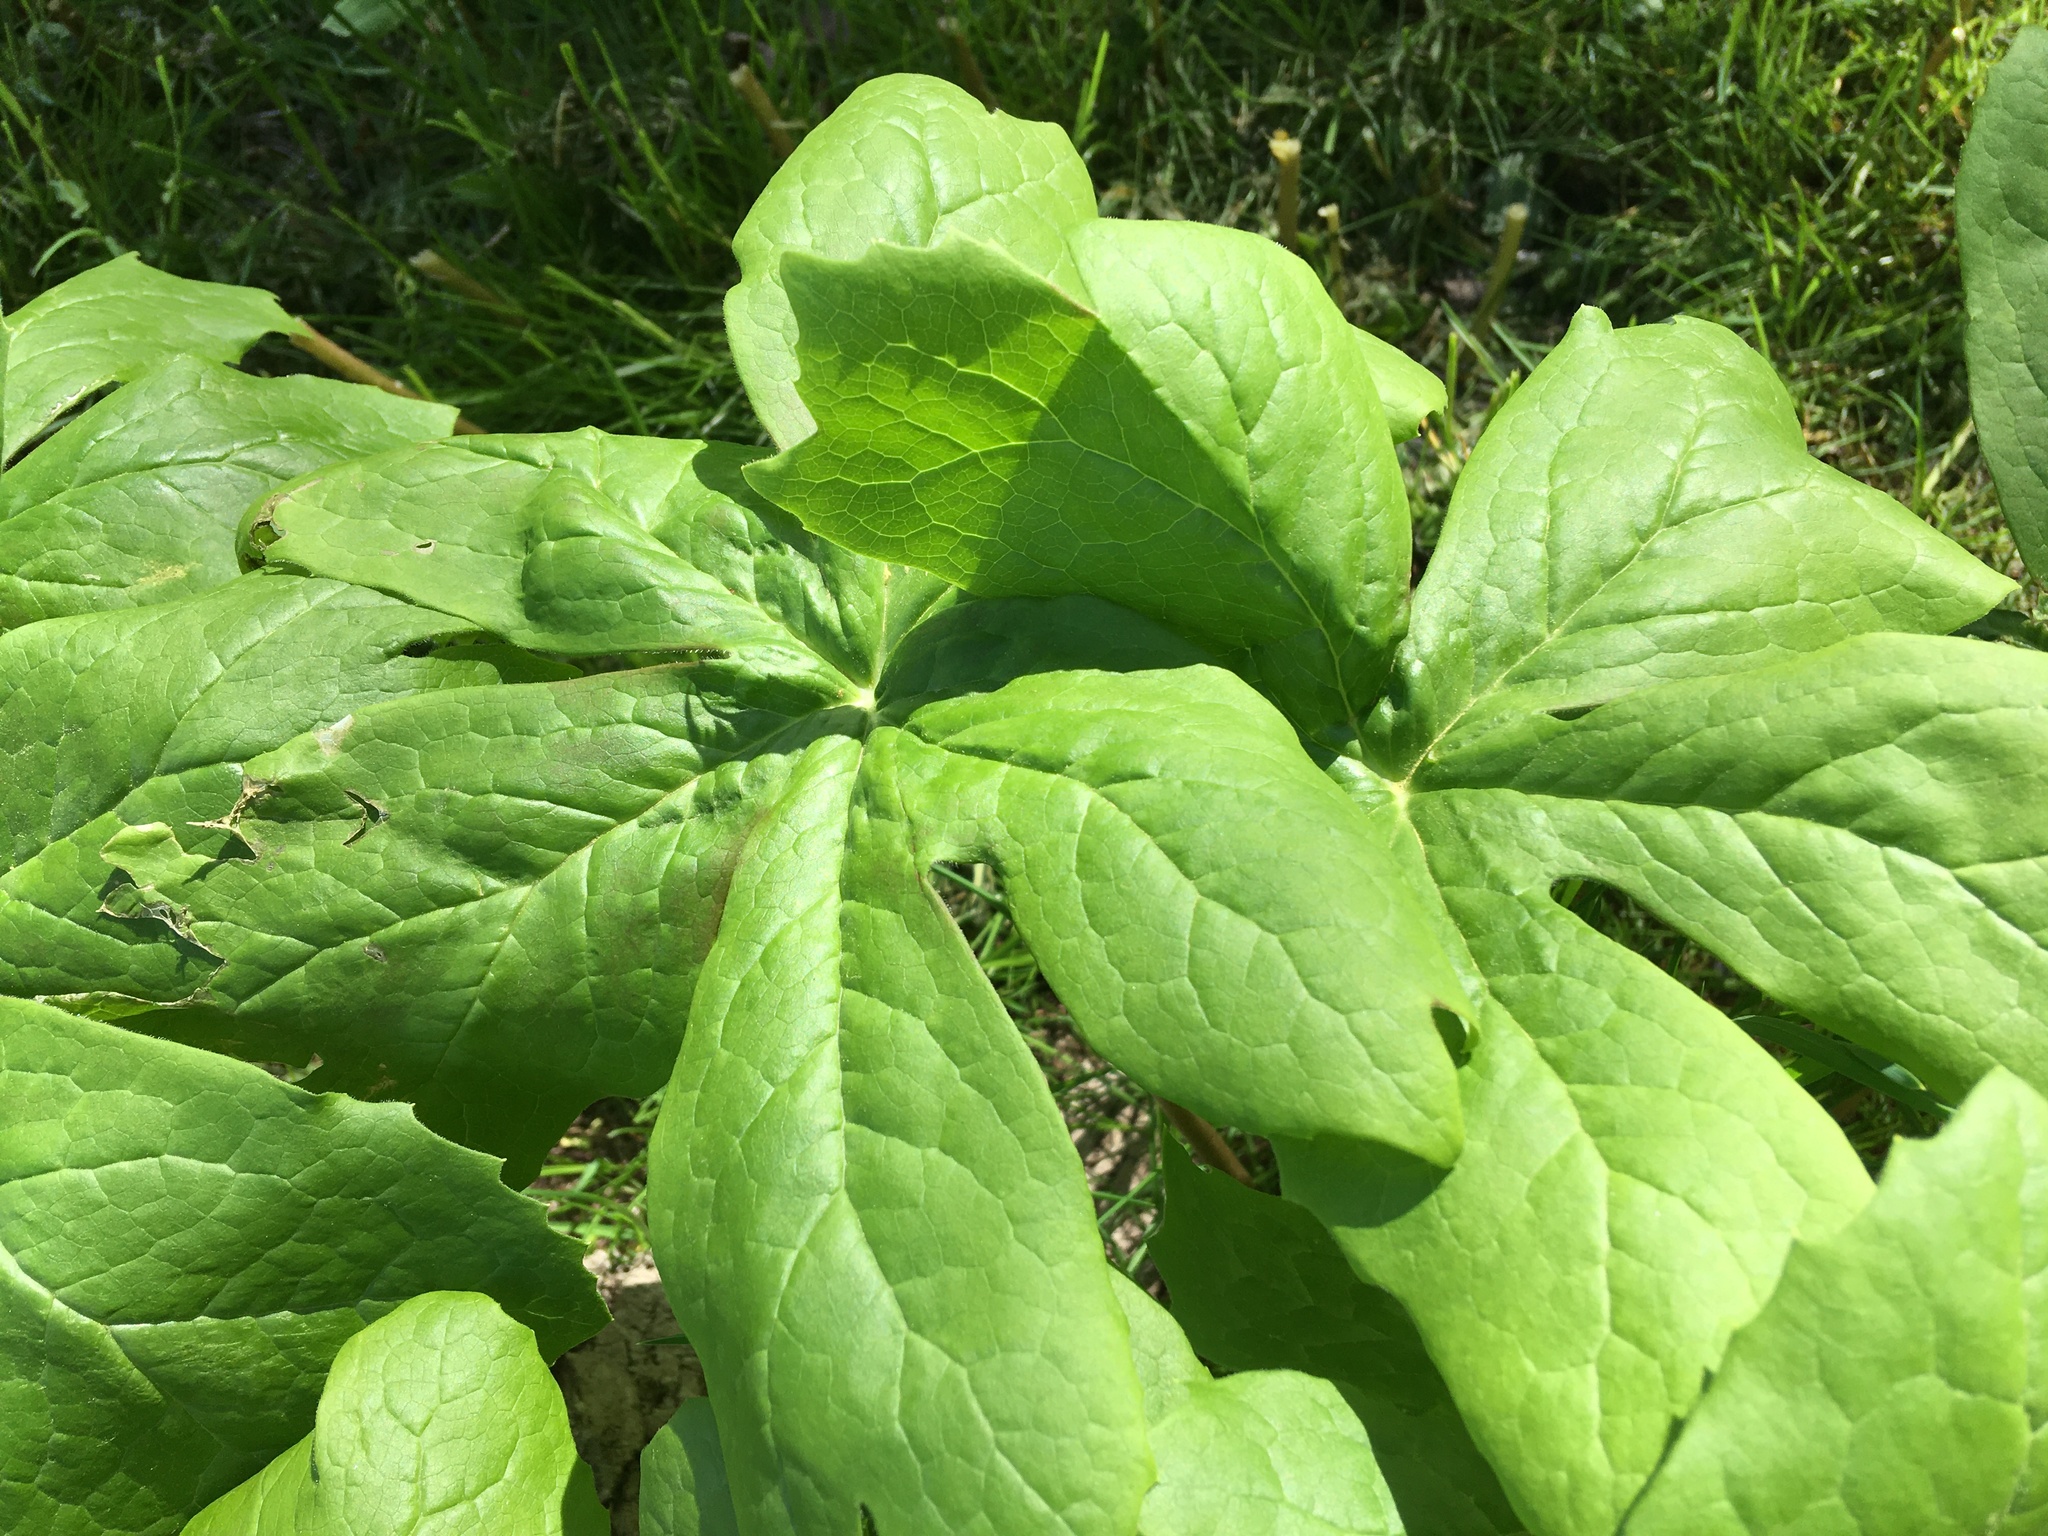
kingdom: Plantae
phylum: Tracheophyta
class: Magnoliopsida
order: Ranunculales
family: Berberidaceae
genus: Podophyllum
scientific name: Podophyllum peltatum
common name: Wild mandrake
